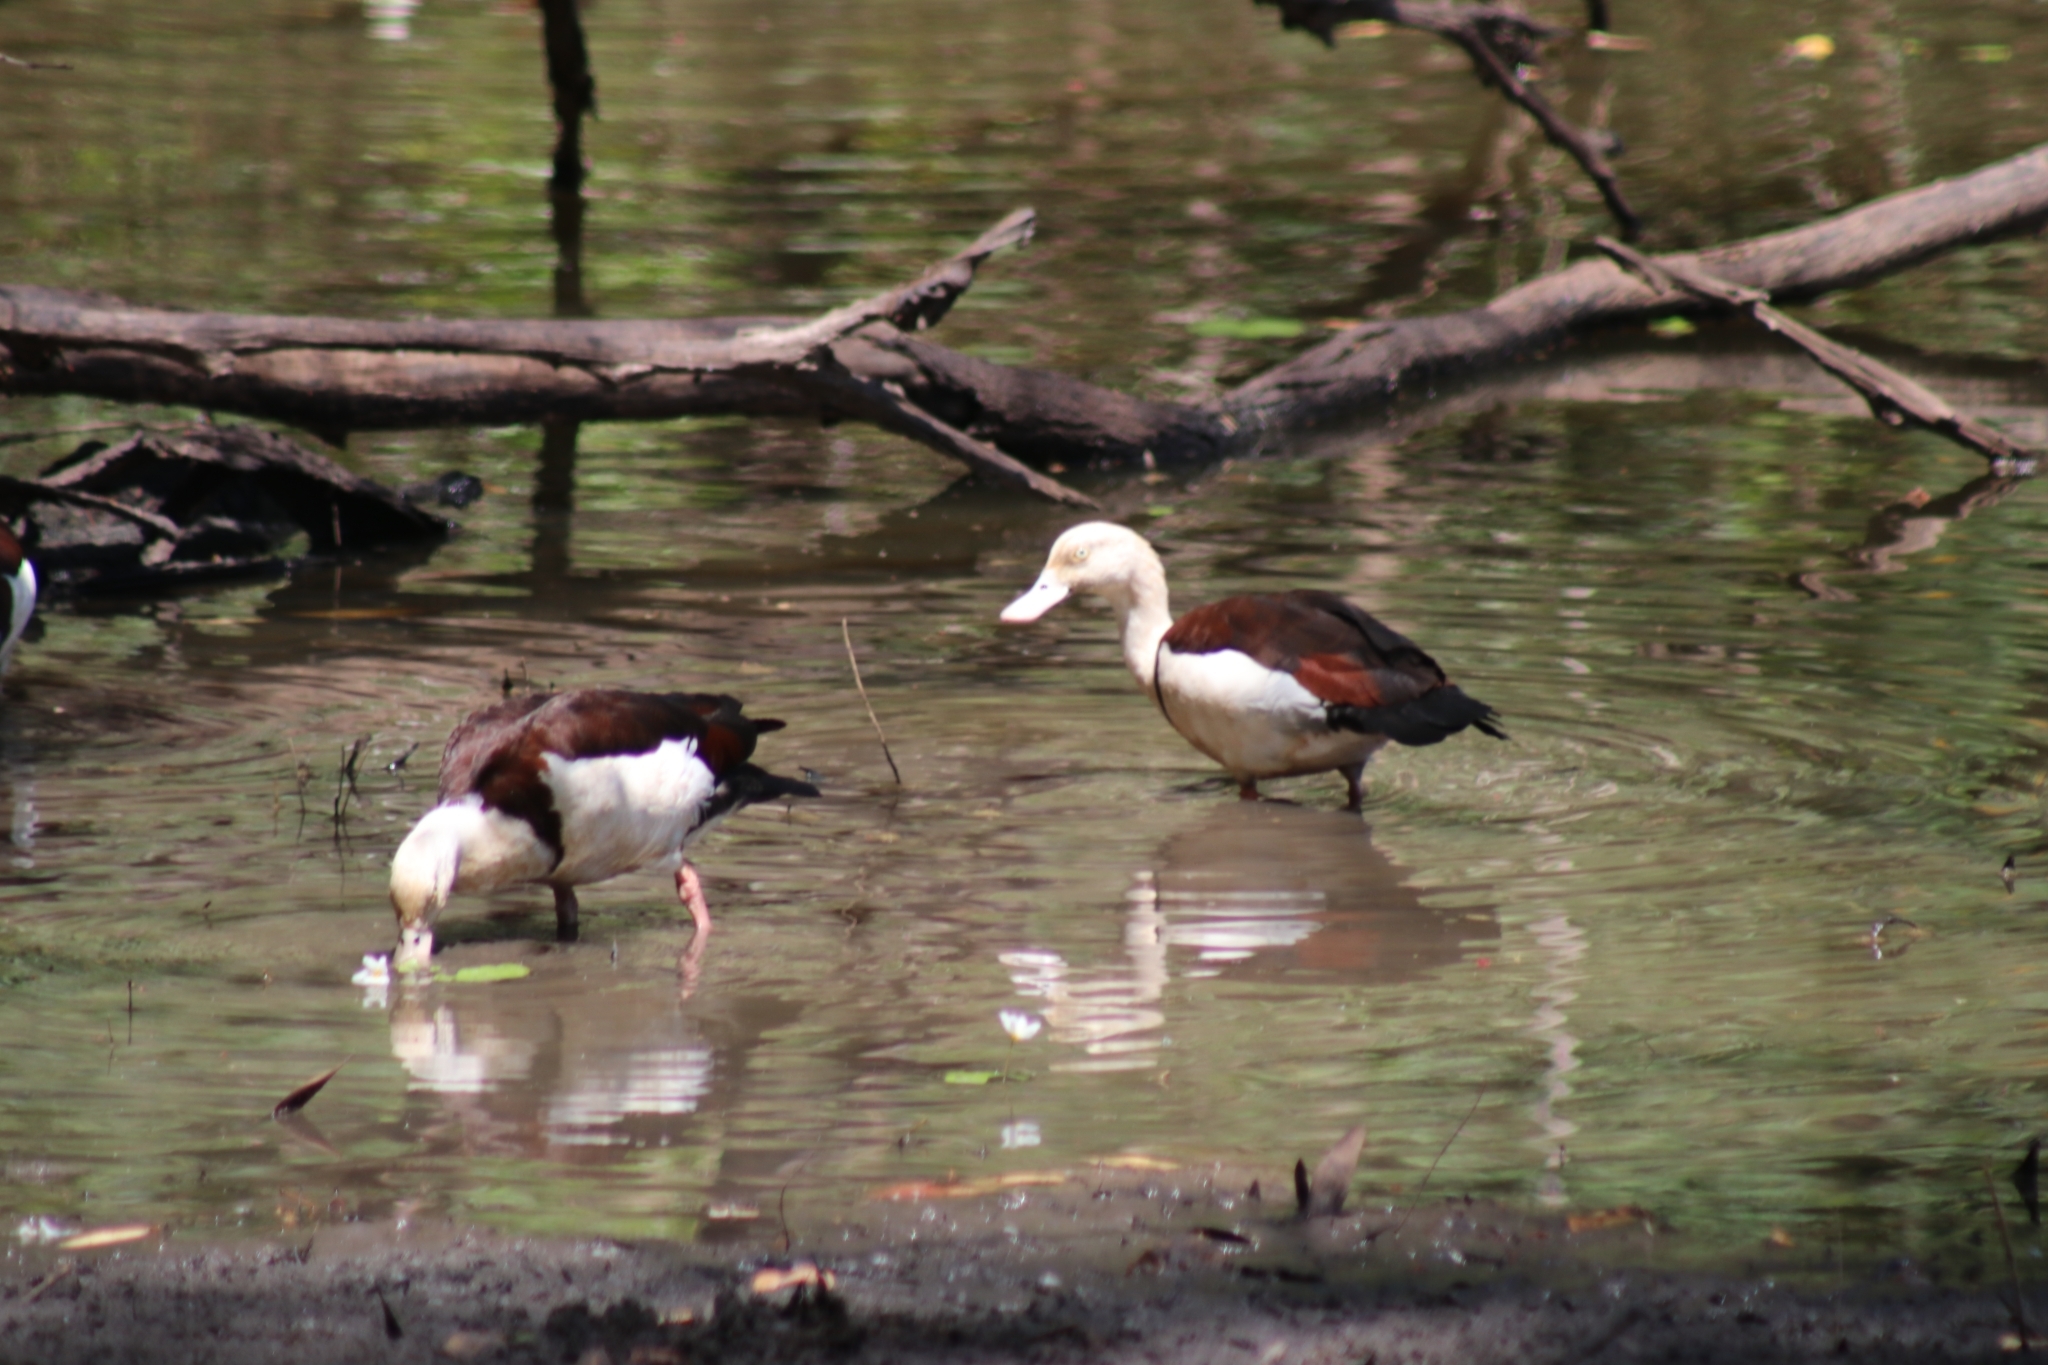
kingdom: Animalia
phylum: Chordata
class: Aves
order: Anseriformes
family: Anatidae
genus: Radjah
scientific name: Radjah radjah
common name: Radjah shelduck
